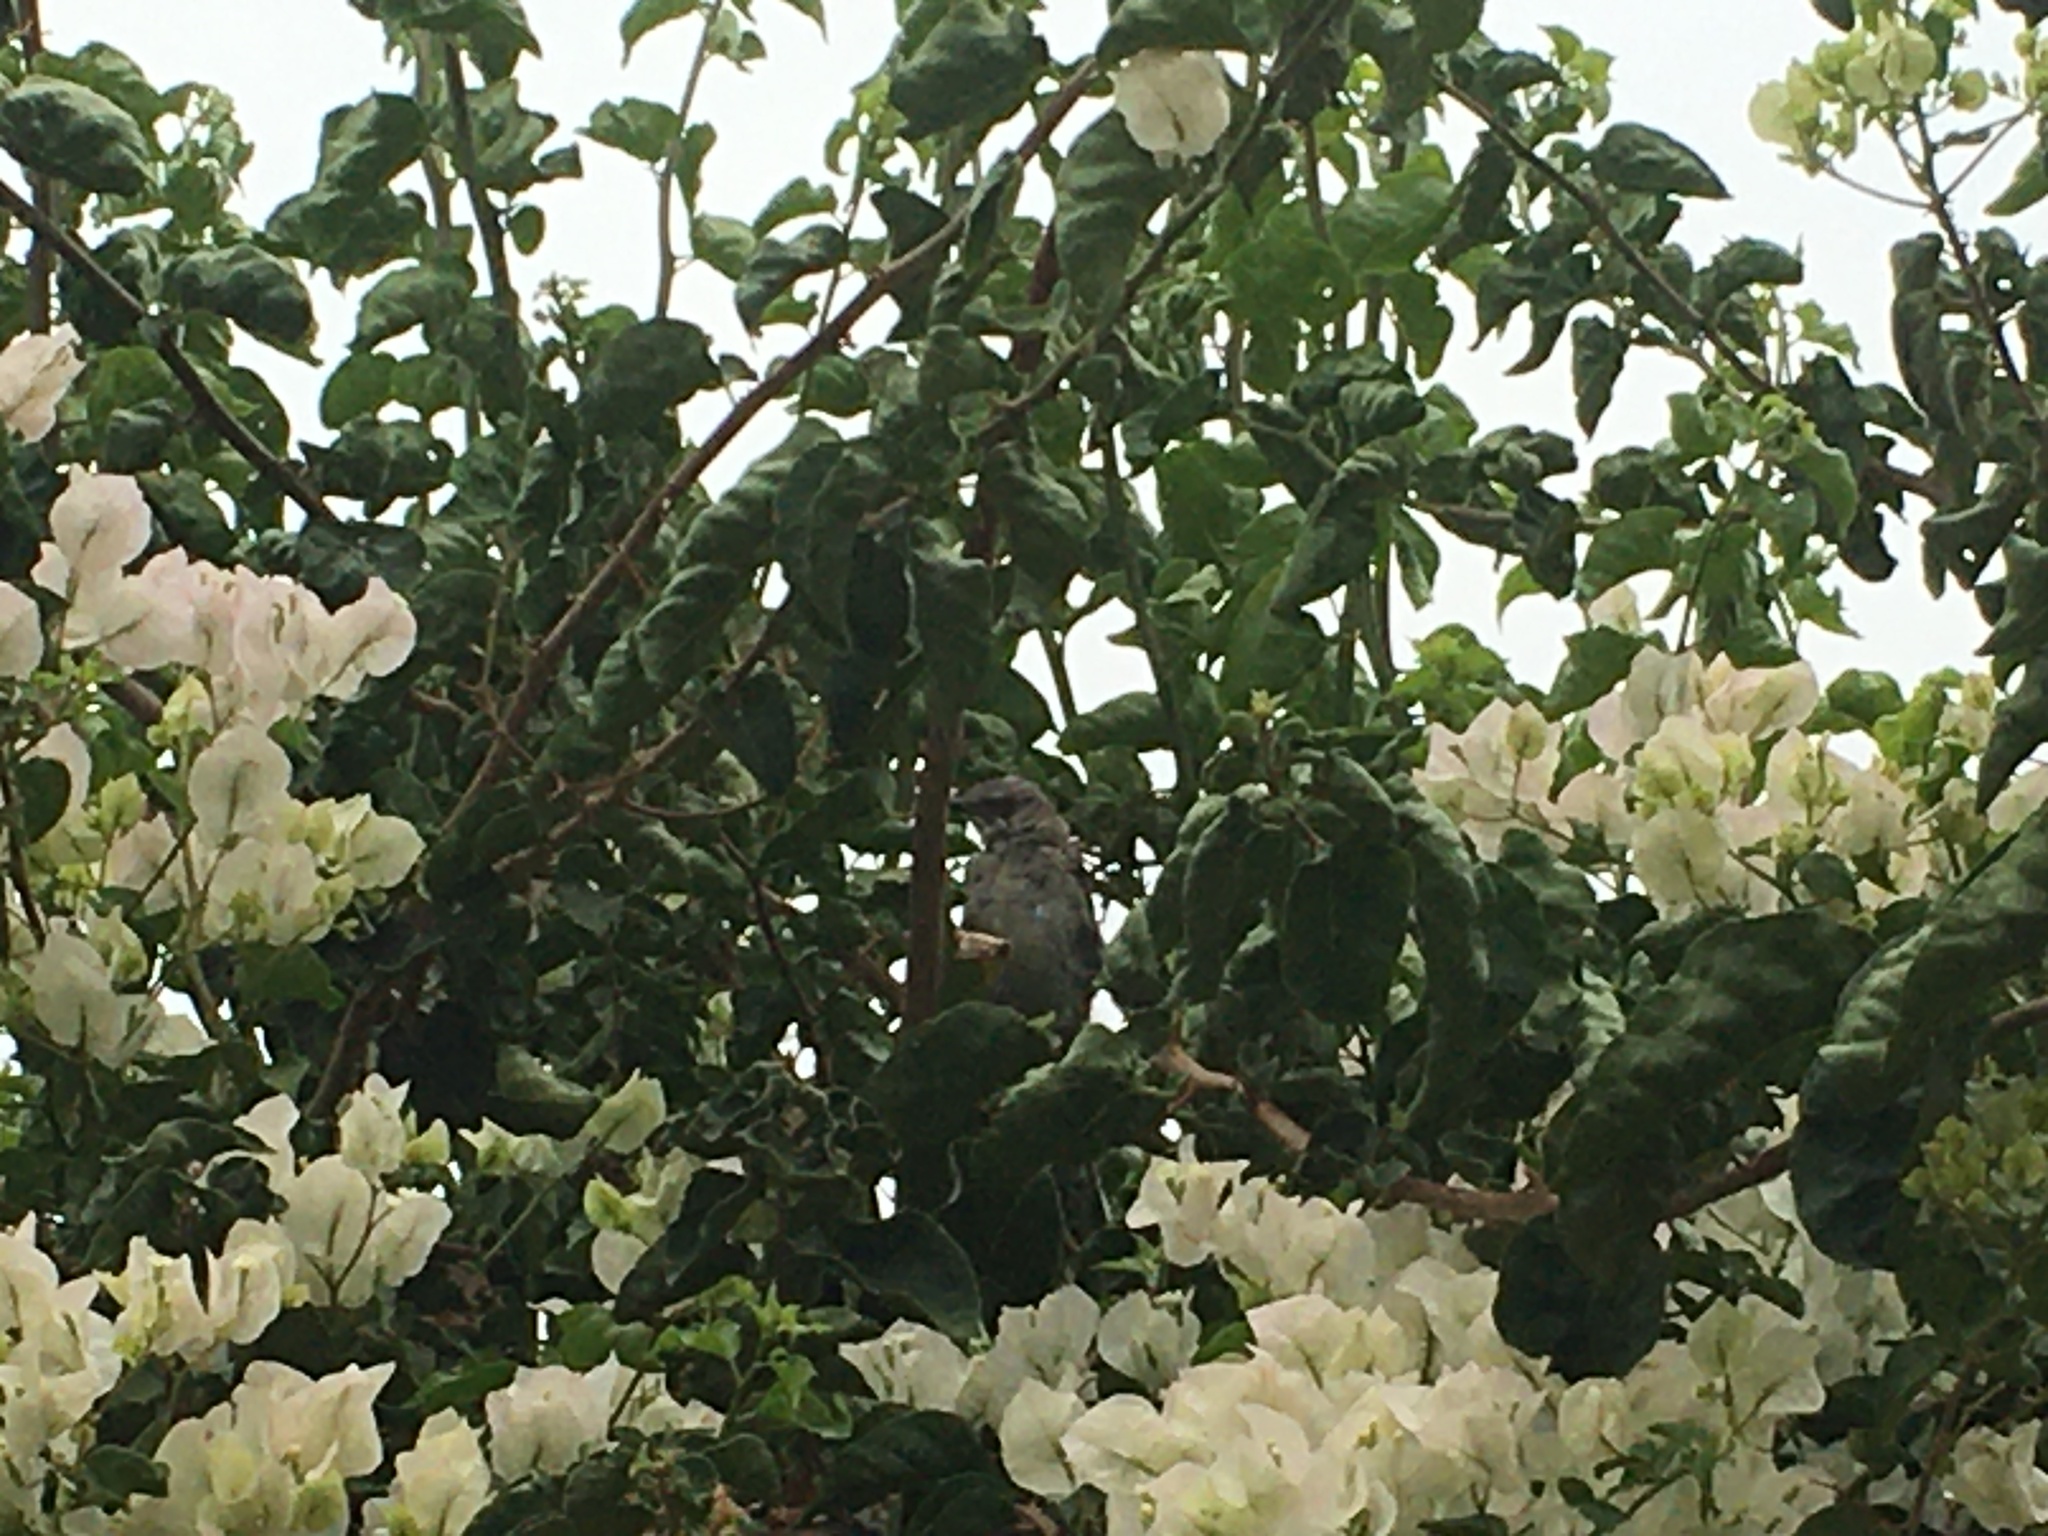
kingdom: Animalia
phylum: Chordata
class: Aves
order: Passeriformes
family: Mimidae
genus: Mimus
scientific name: Mimus polyglottos
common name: Northern mockingbird
